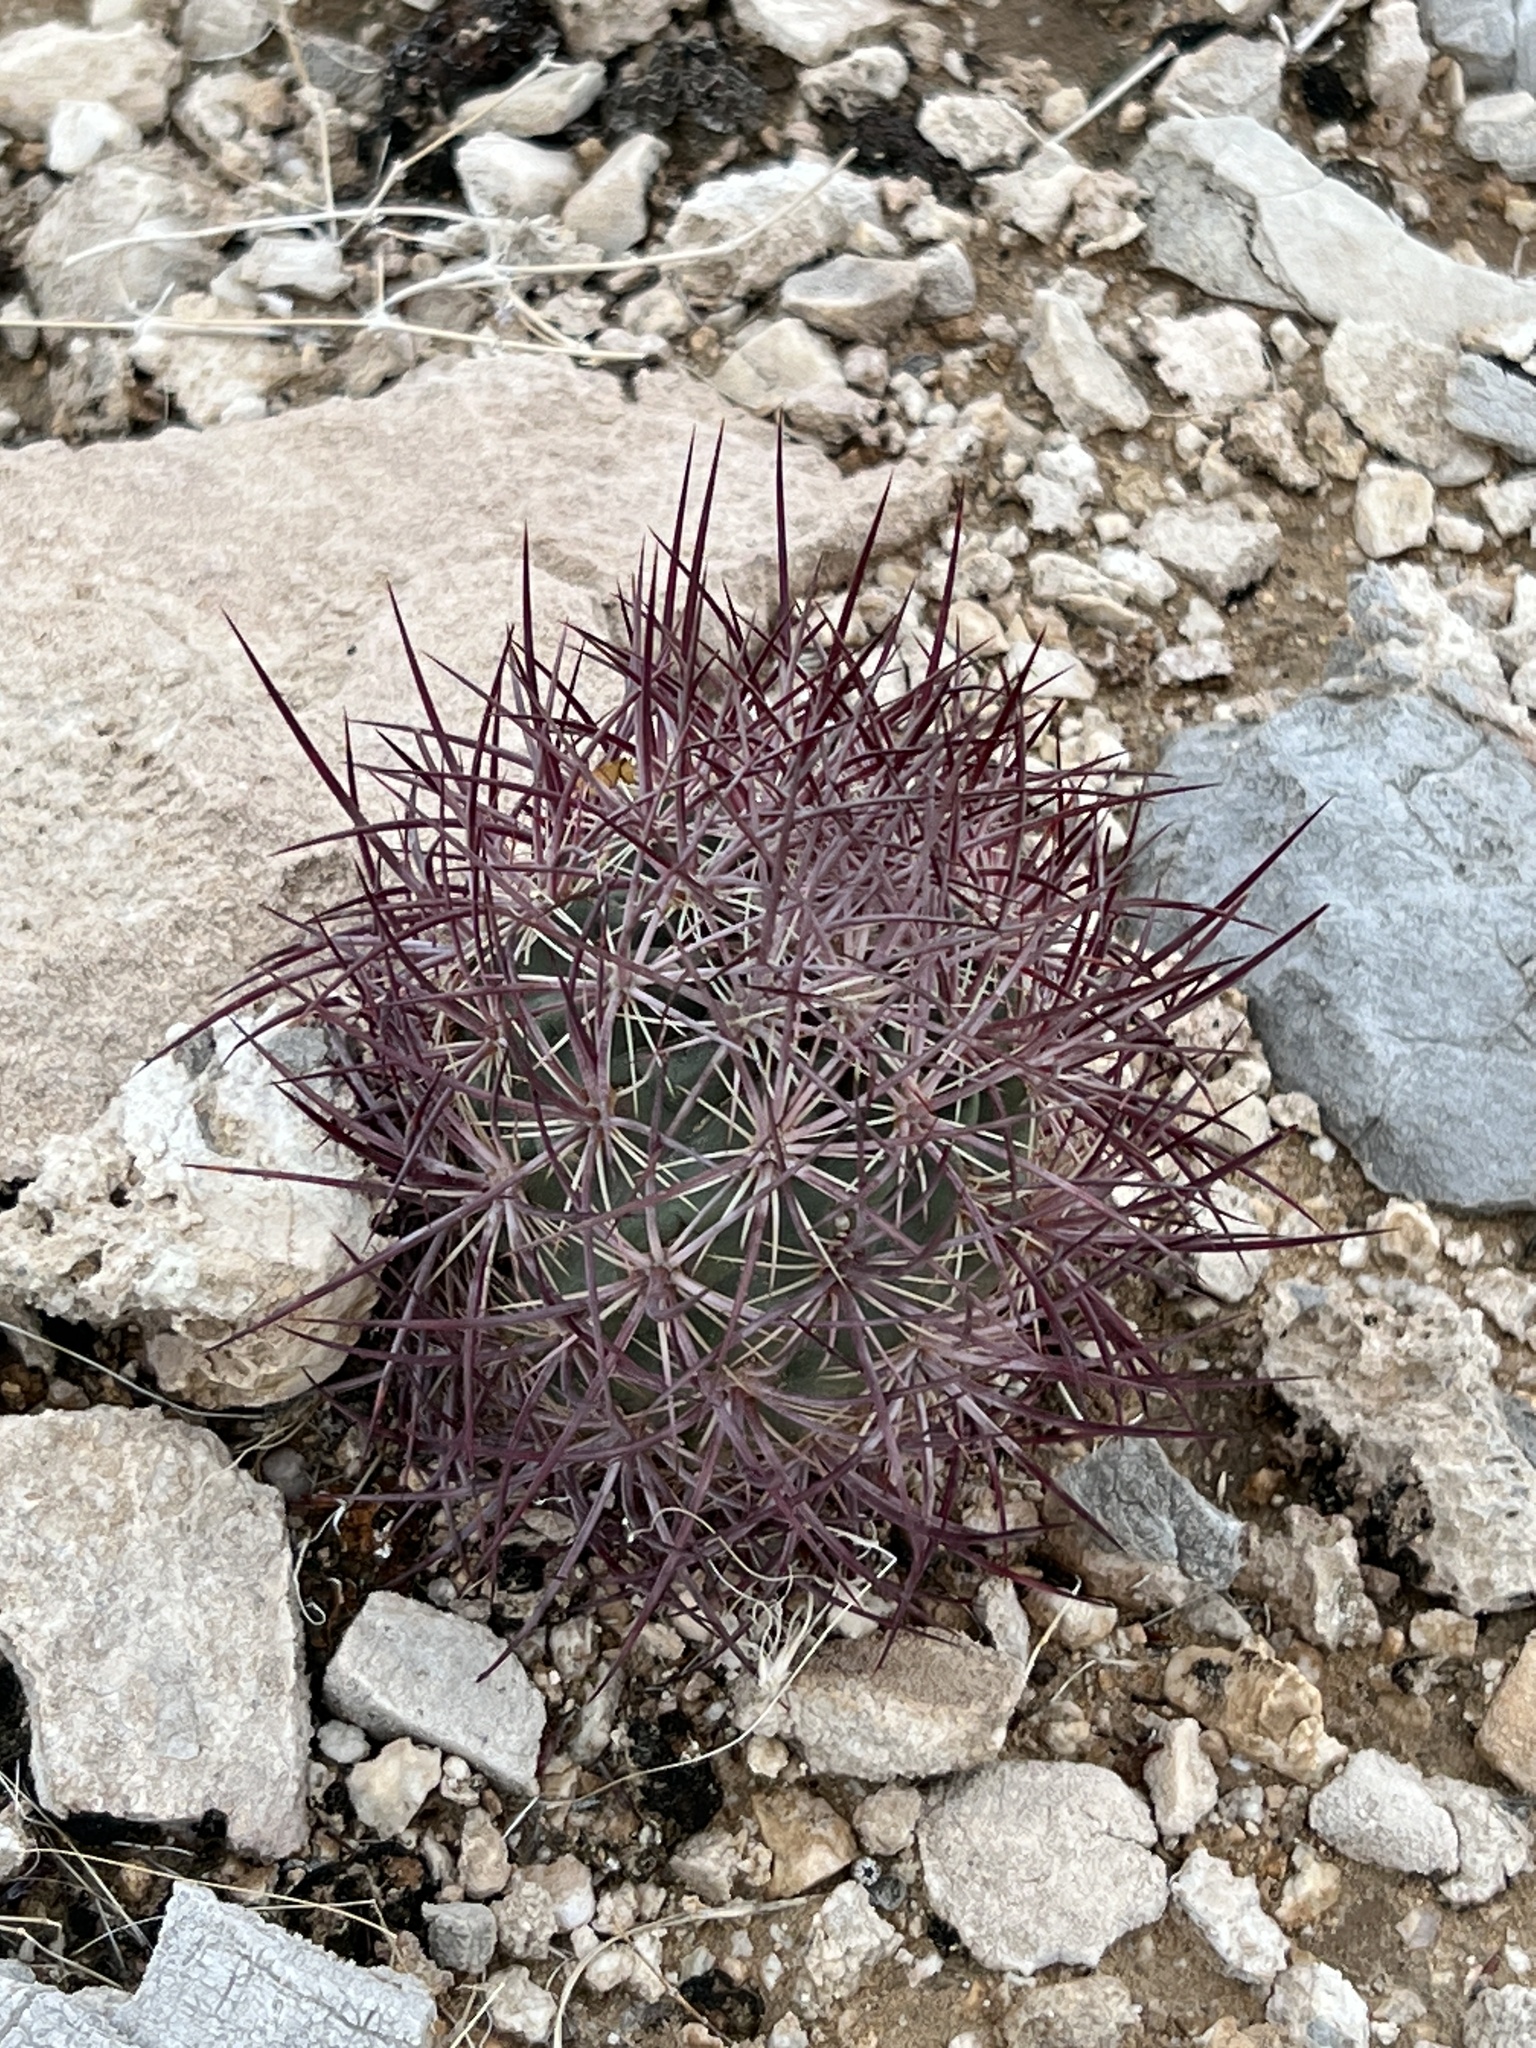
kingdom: Plantae
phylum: Tracheophyta
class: Magnoliopsida
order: Caryophyllales
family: Cactaceae
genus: Sclerocactus
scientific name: Sclerocactus johnsonii
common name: Eight-spine fishhook cactus
